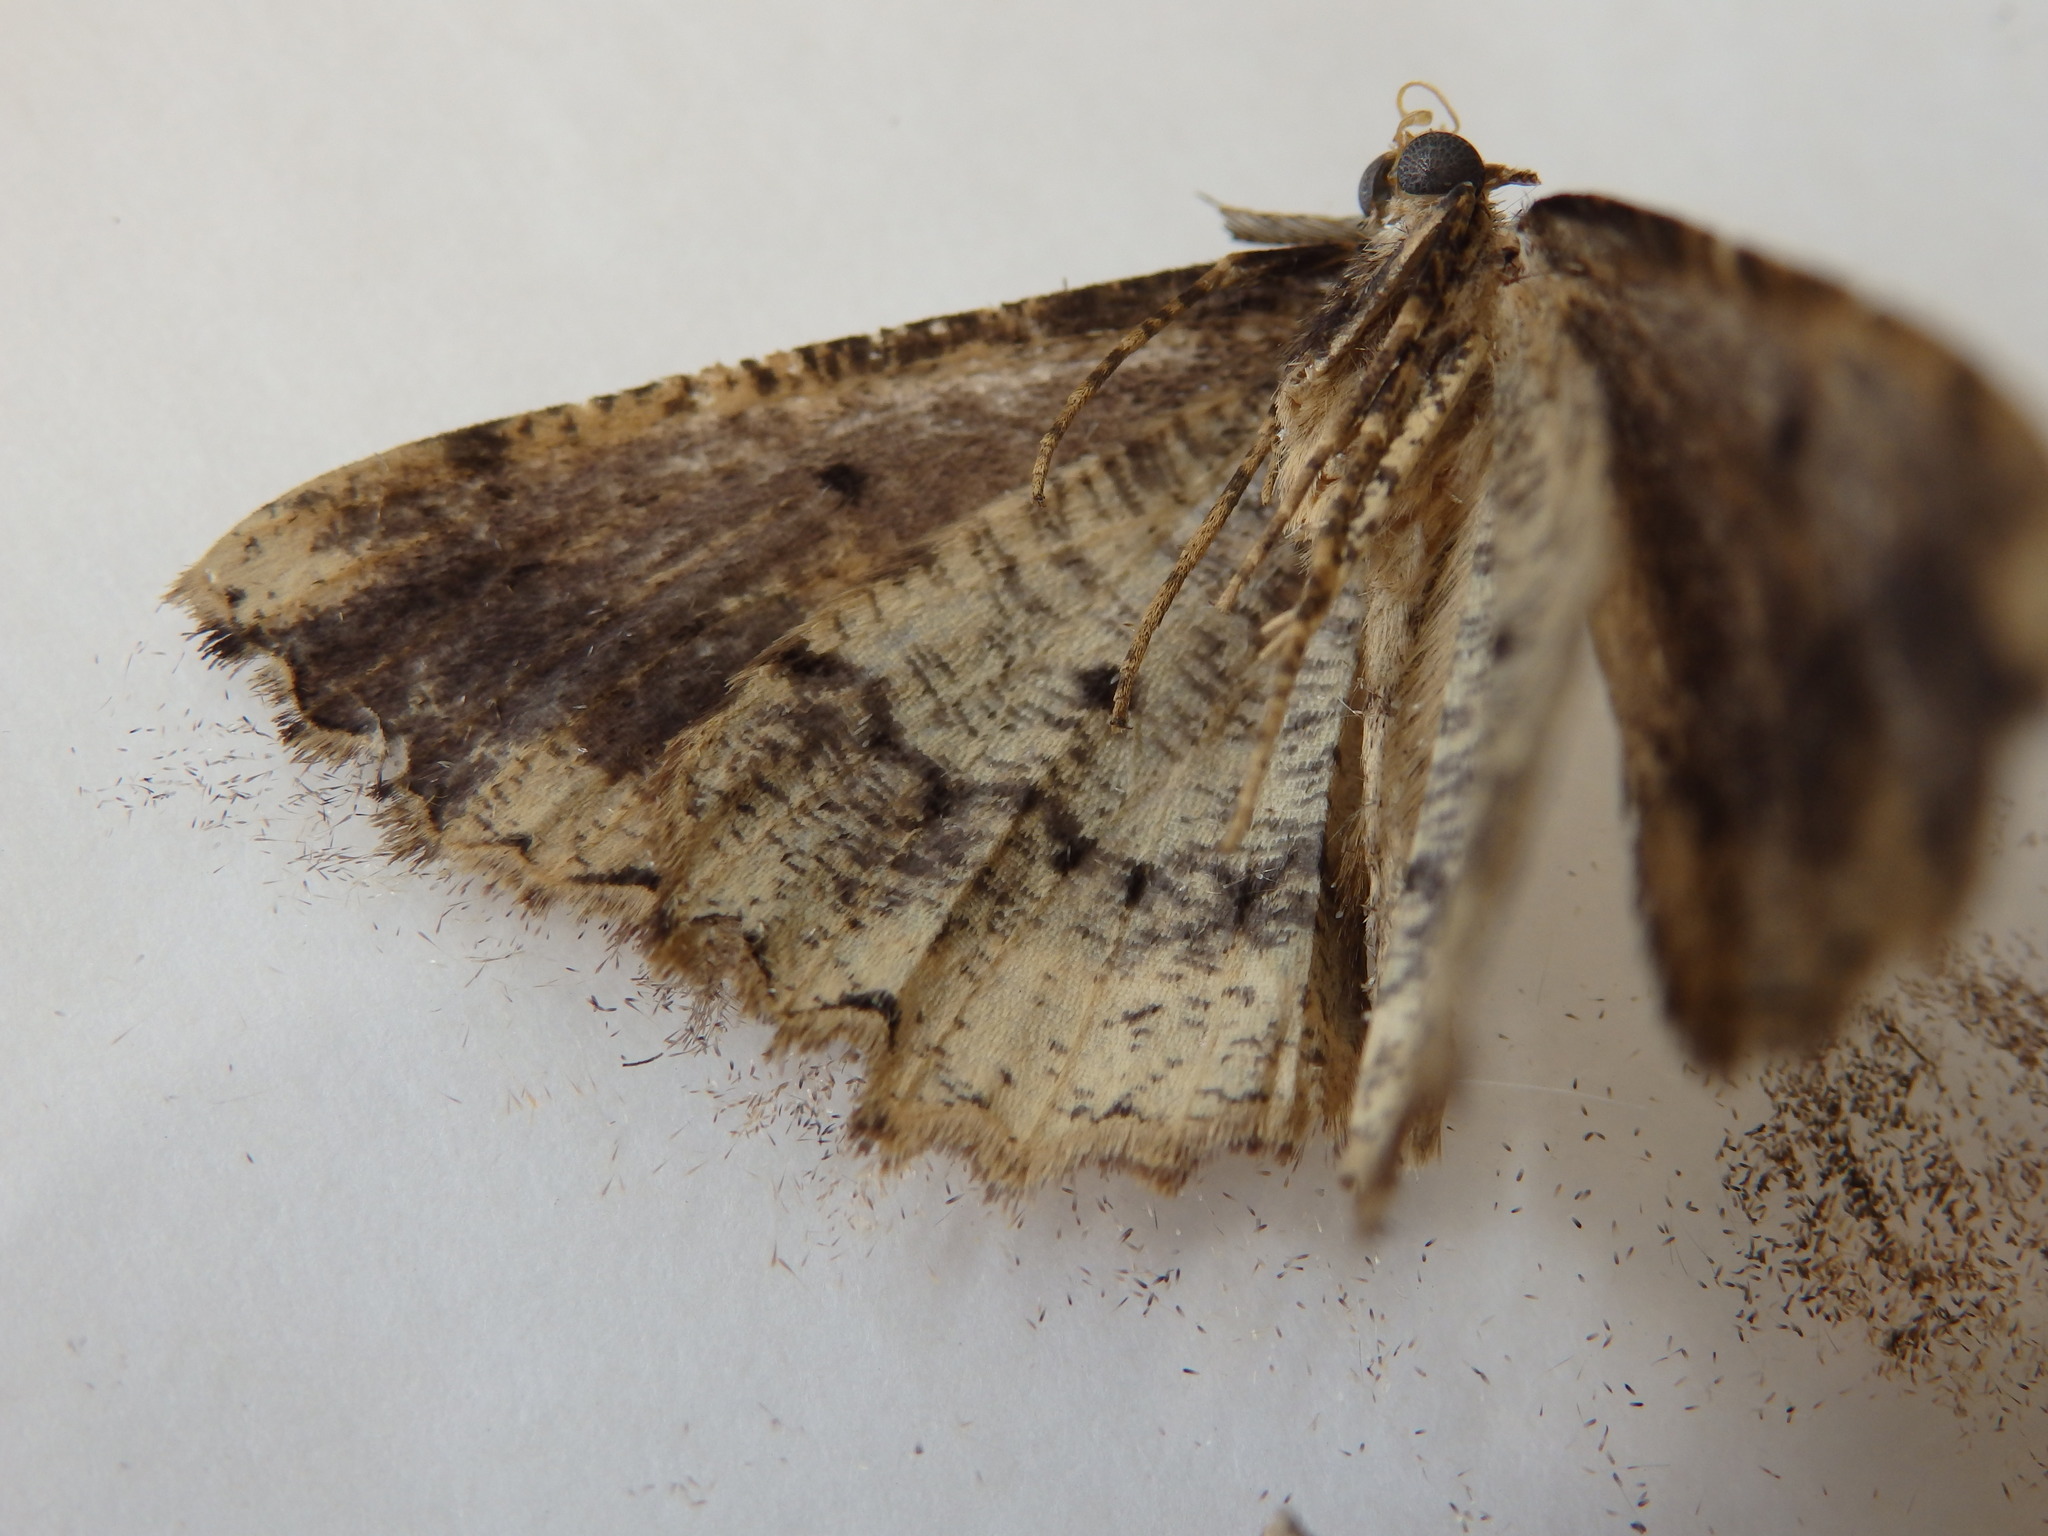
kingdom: Animalia
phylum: Arthropoda
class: Insecta
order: Lepidoptera
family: Geometridae
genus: Menophra
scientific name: Menophra abruptaria
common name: Waved umber
